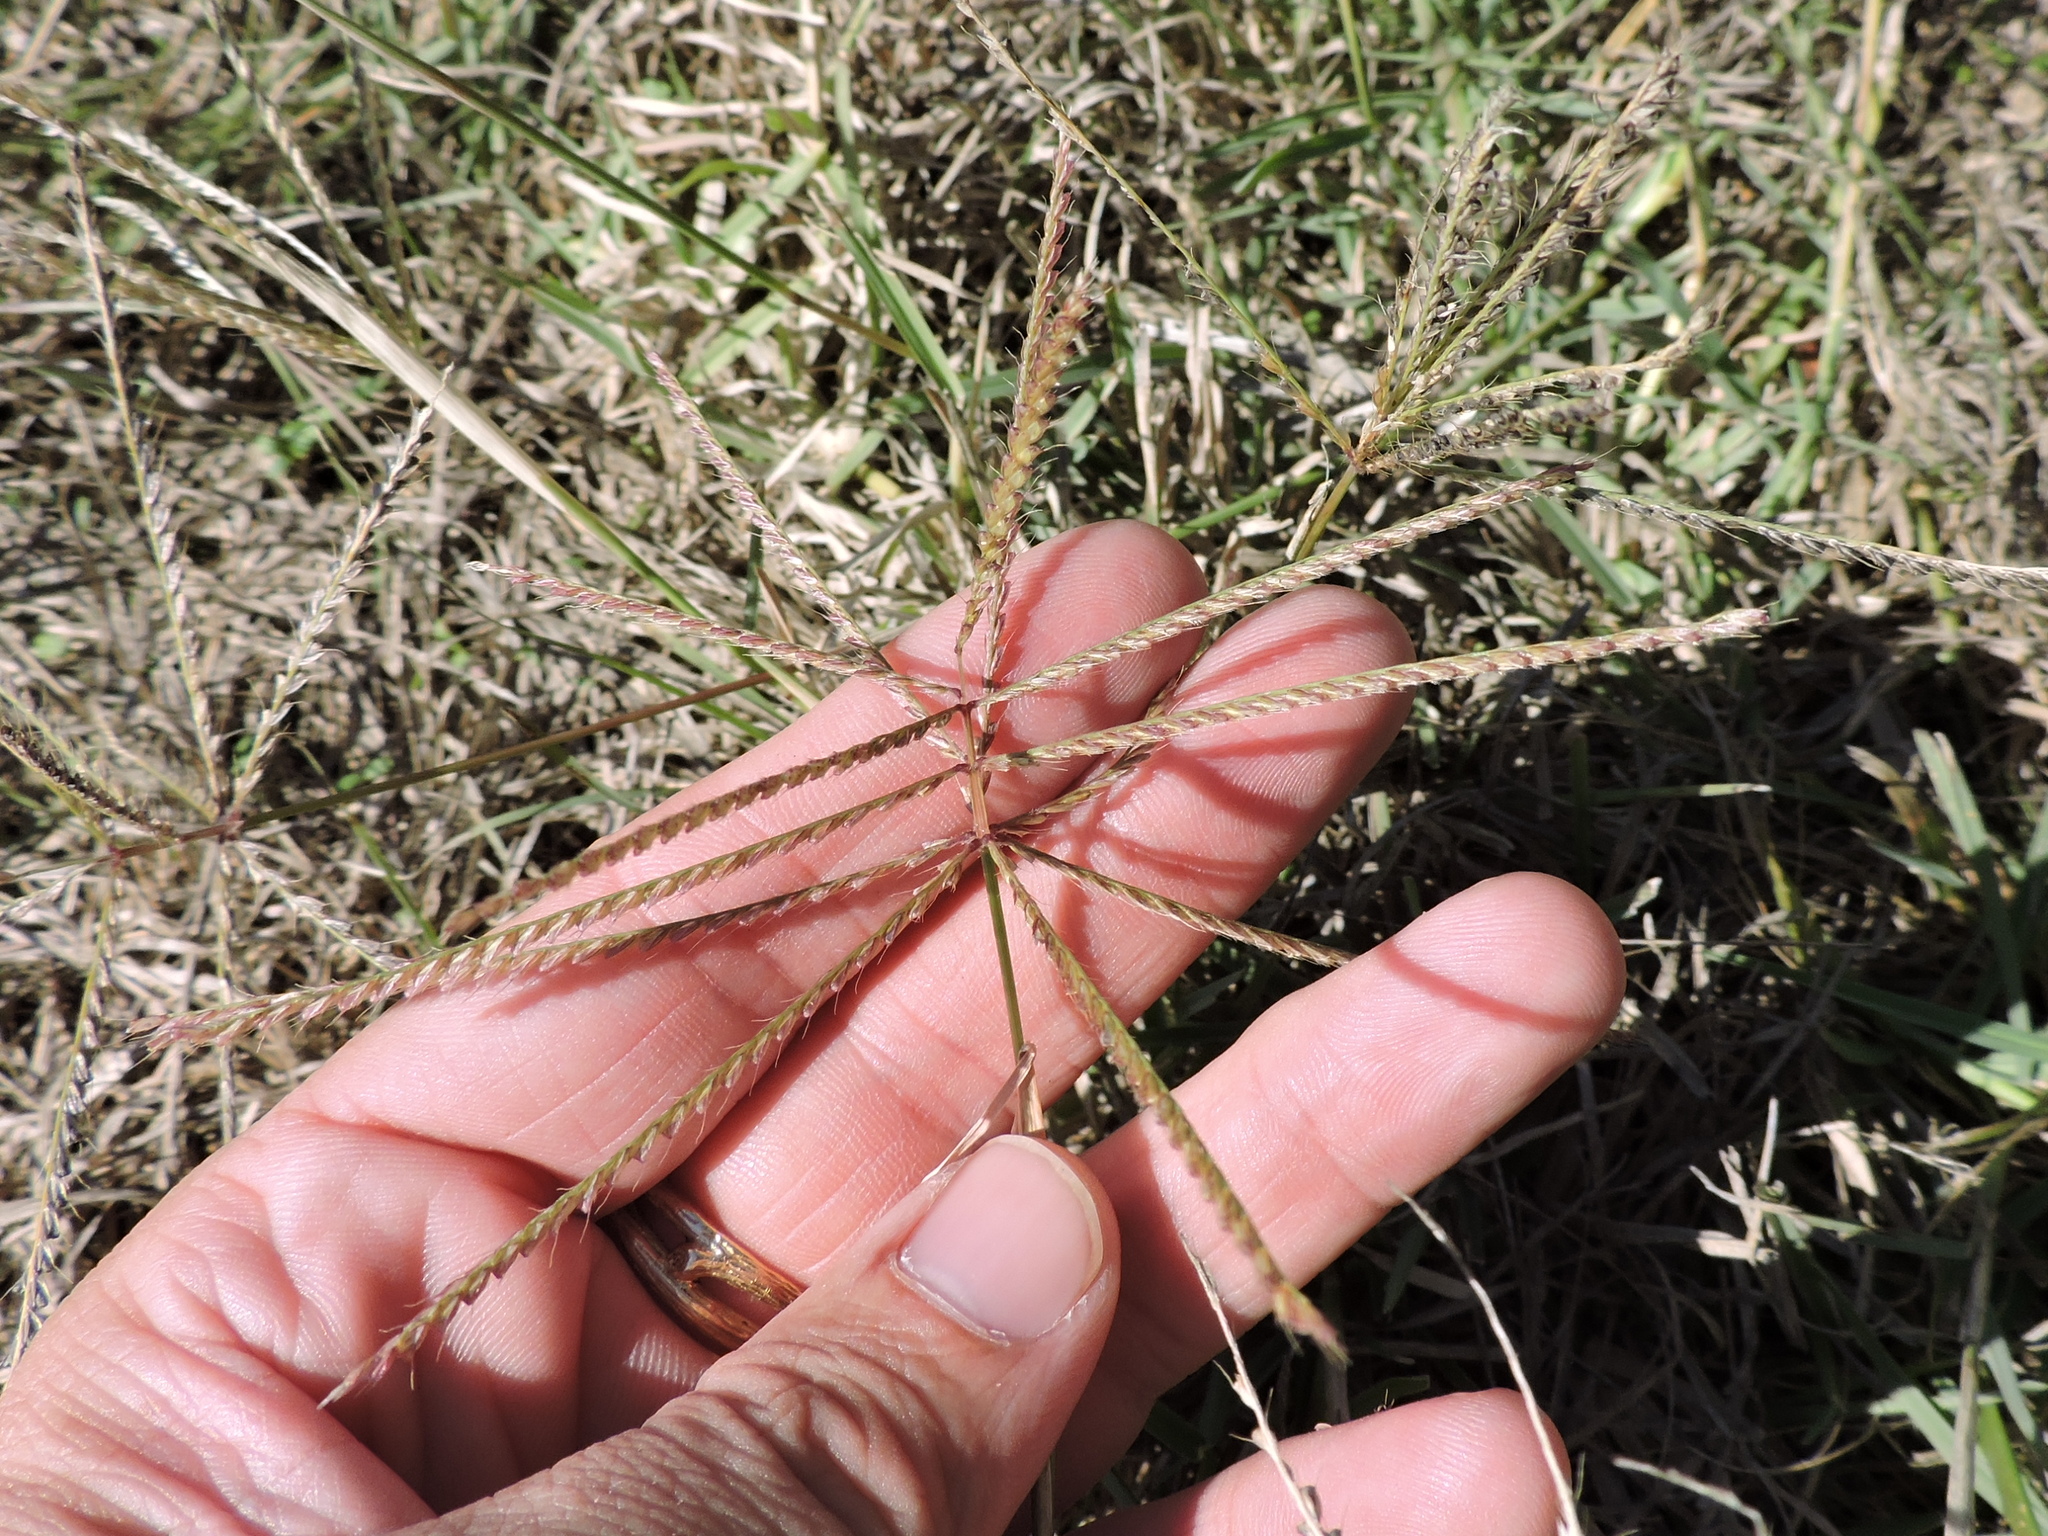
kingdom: Plantae
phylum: Tracheophyta
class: Liliopsida
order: Poales
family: Poaceae
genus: Chloris
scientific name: Chloris verticillata
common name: Tumble windmill grass
